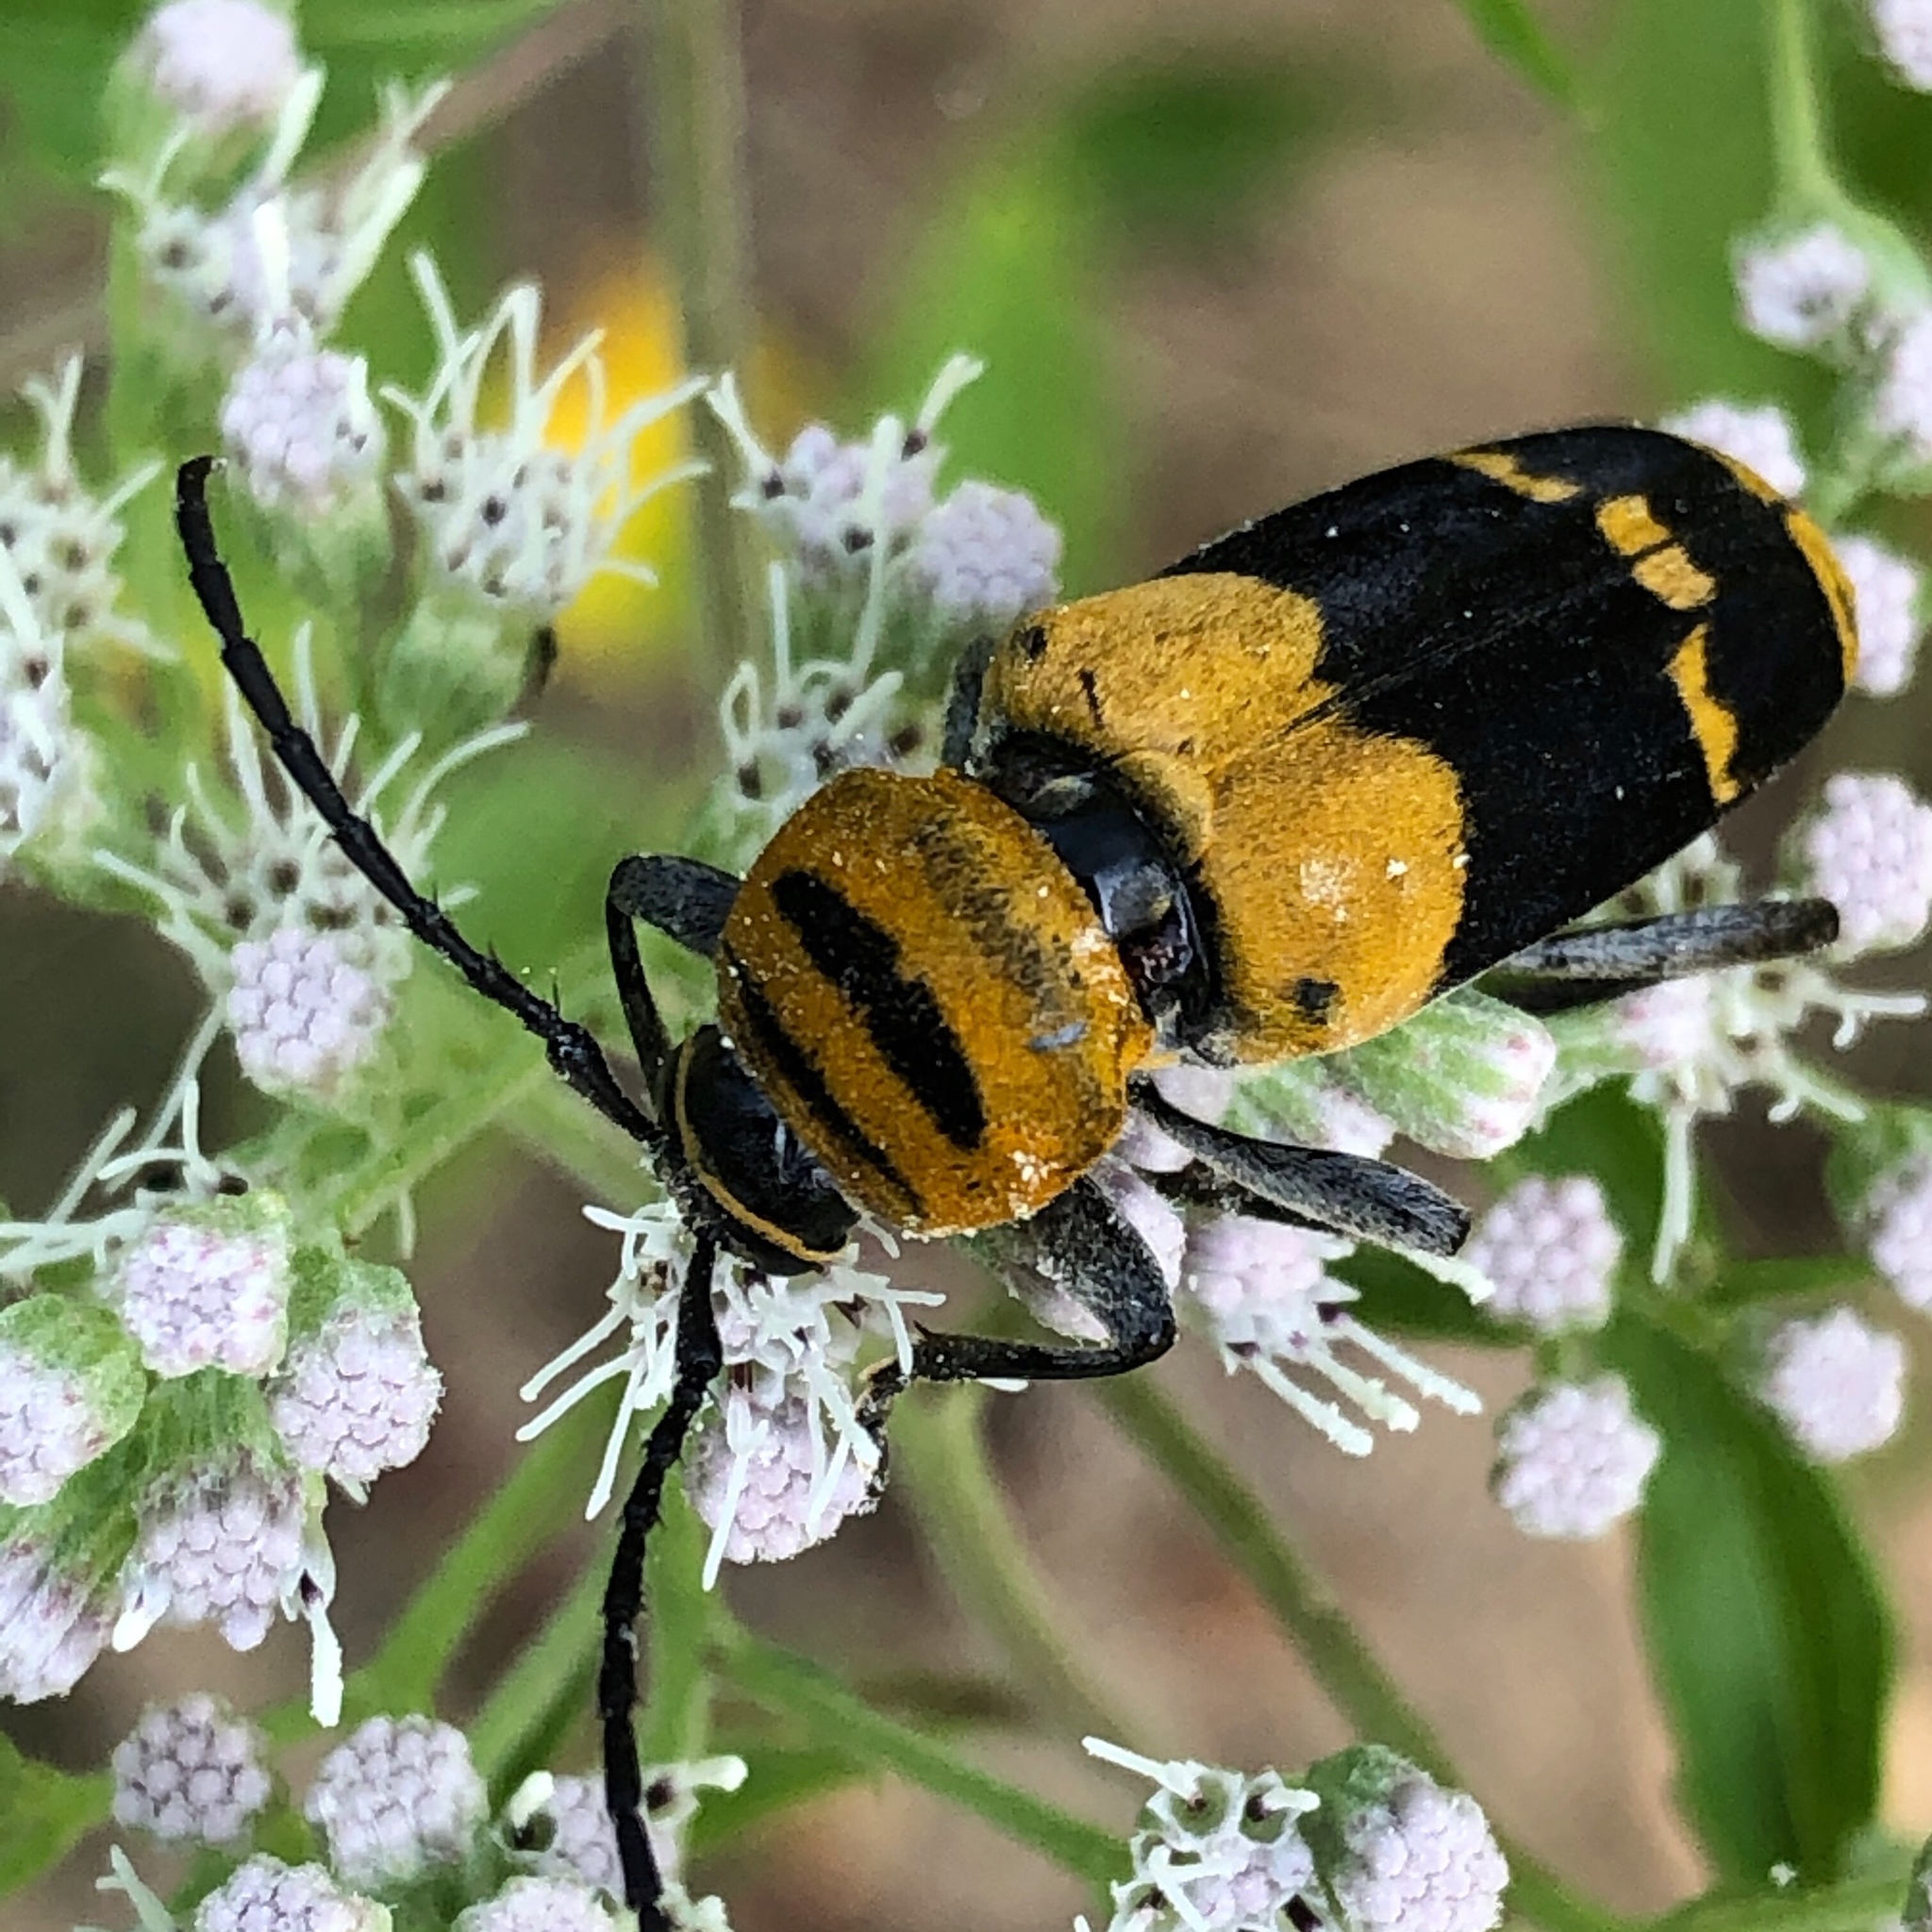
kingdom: Animalia
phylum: Arthropoda
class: Insecta
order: Coleoptera
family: Cerambycidae
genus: Megacyllene
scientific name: Megacyllene decora
